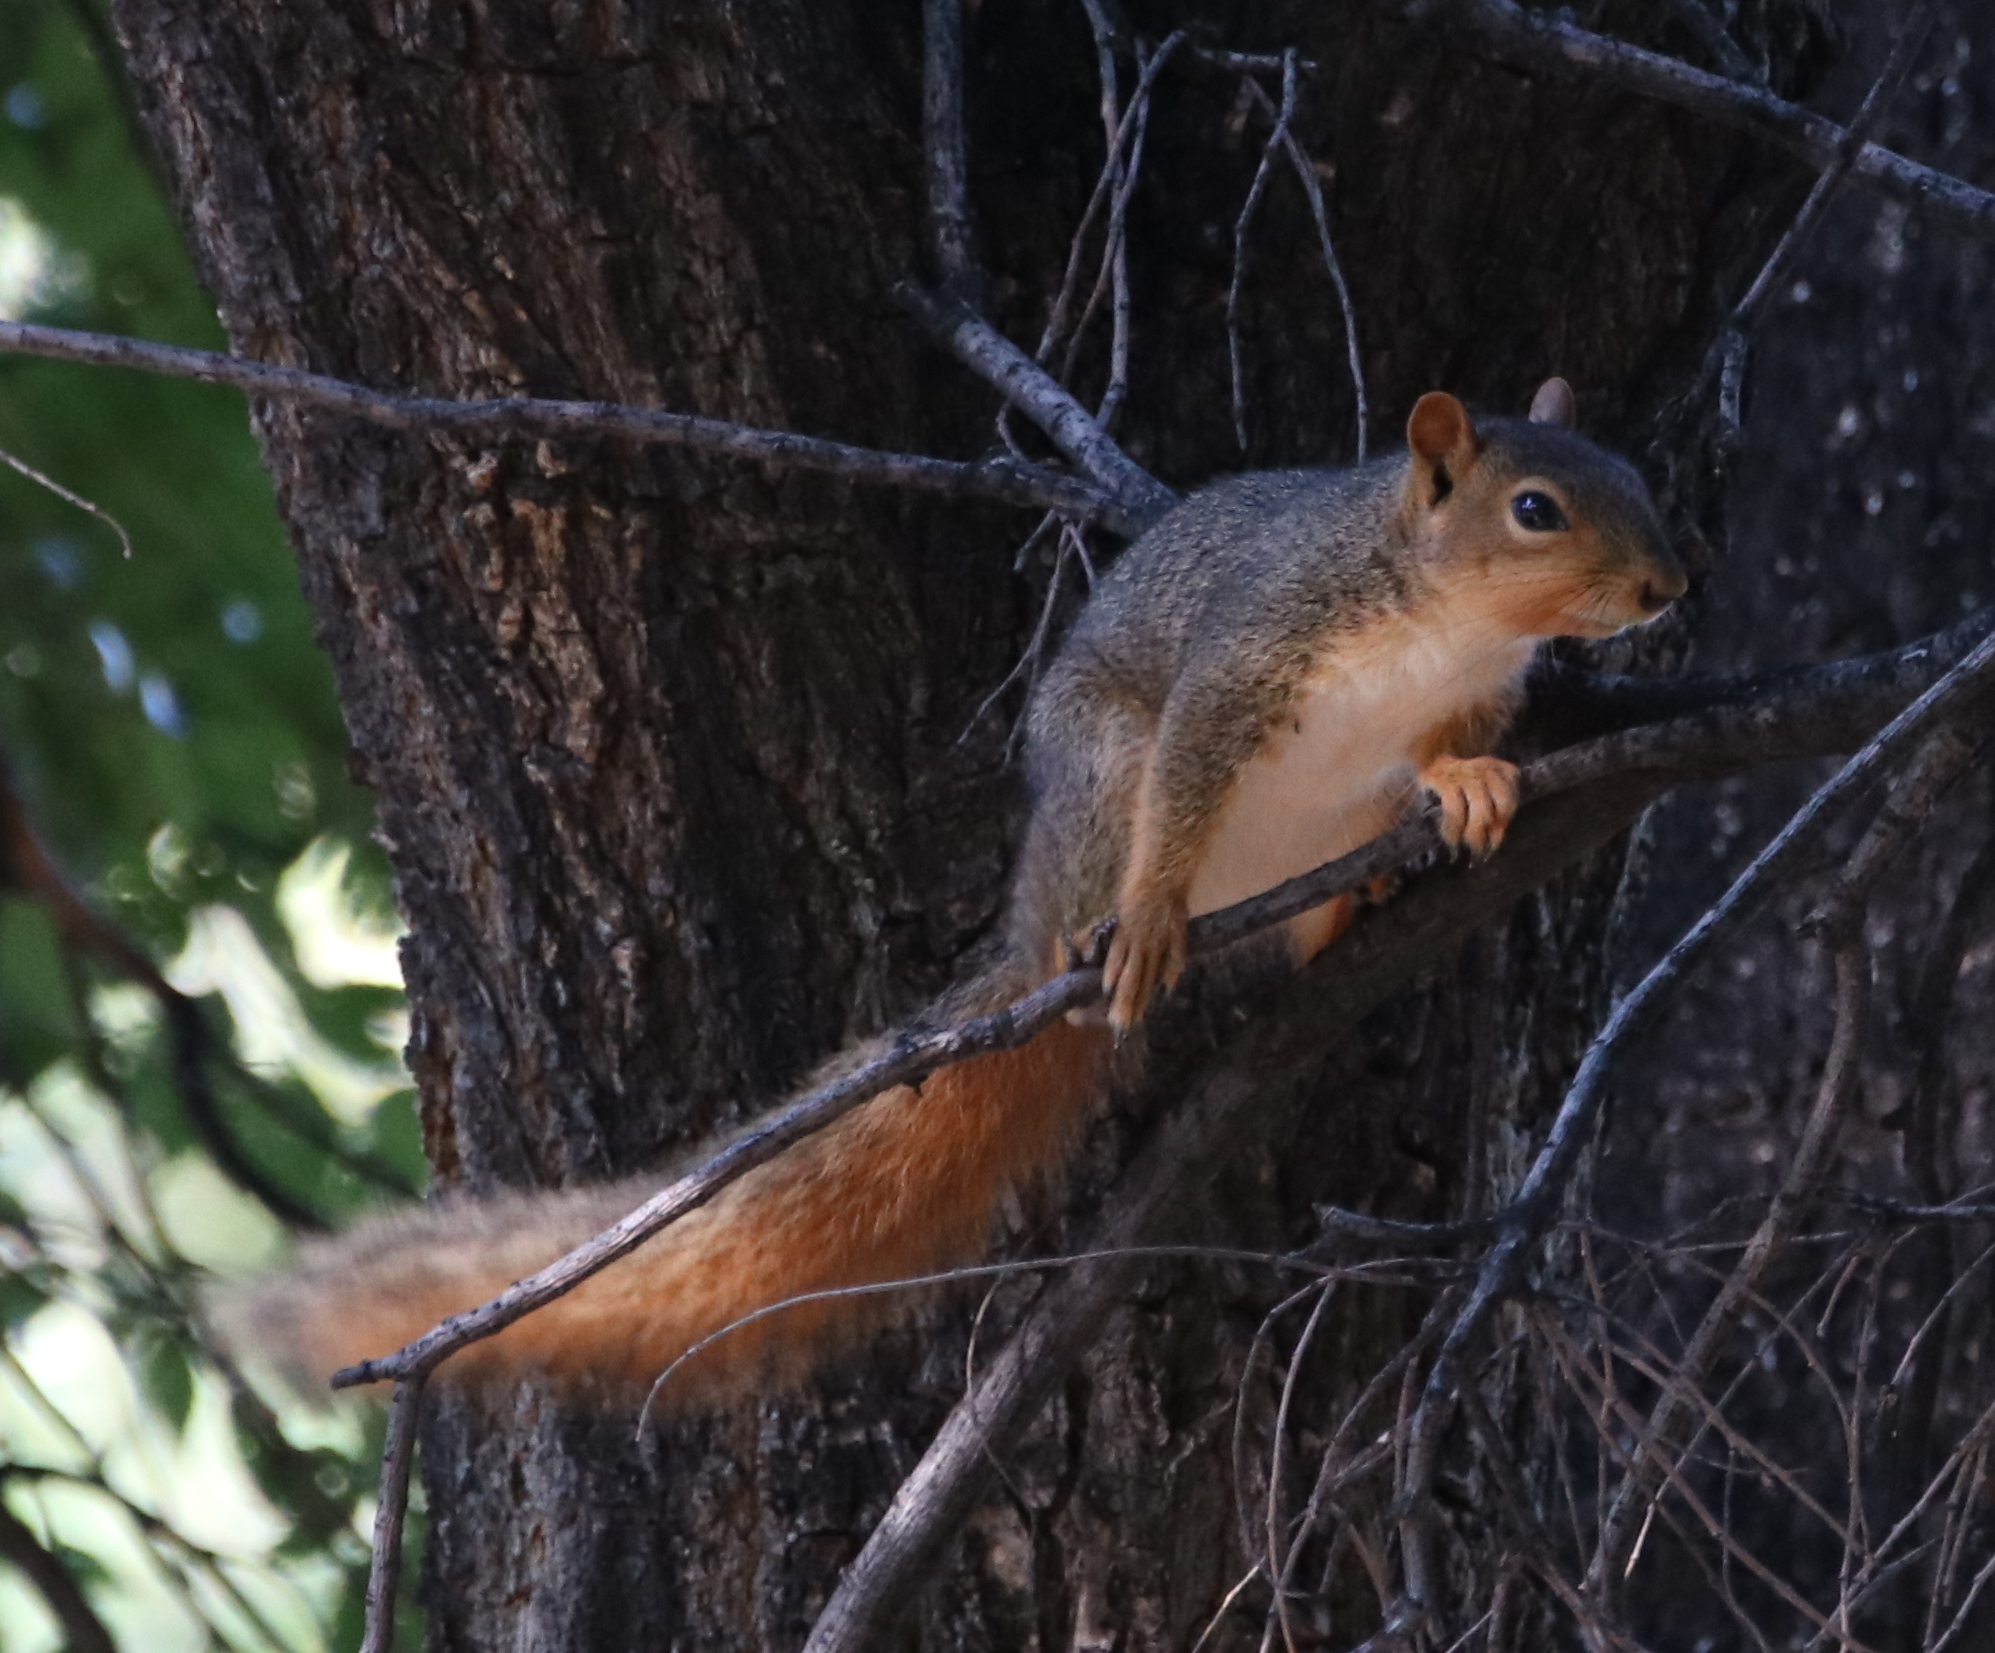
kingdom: Animalia
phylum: Chordata
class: Mammalia
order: Rodentia
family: Sciuridae
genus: Sciurus
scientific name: Sciurus niger
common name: Fox squirrel
